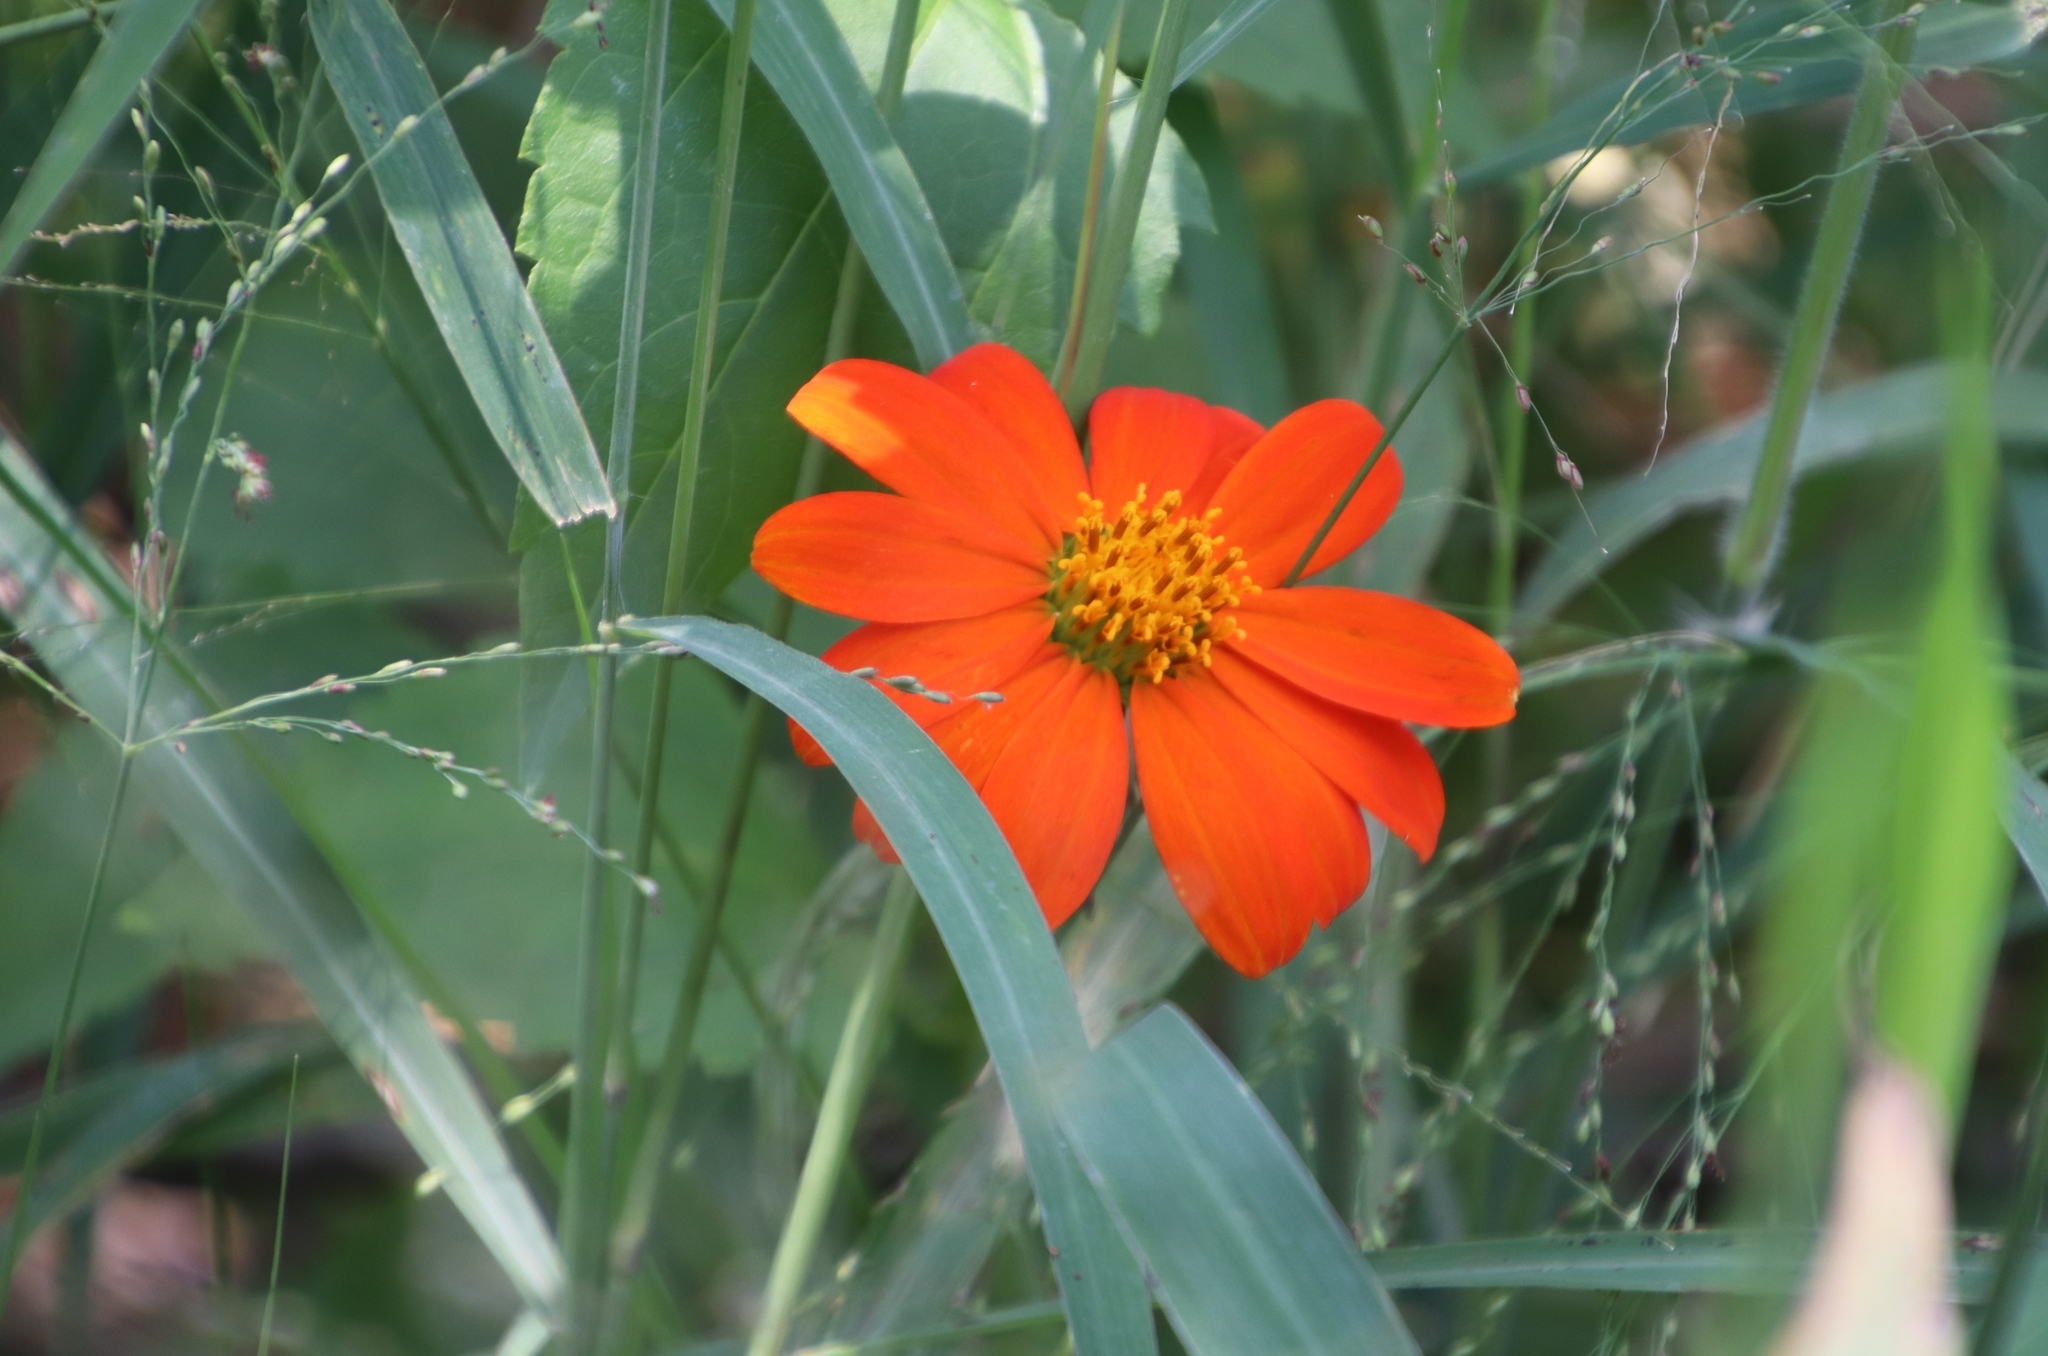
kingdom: Plantae
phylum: Tracheophyta
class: Magnoliopsida
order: Asterales
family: Asteraceae
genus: Tithonia
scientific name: Tithonia rotundifolia
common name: Sunflower
